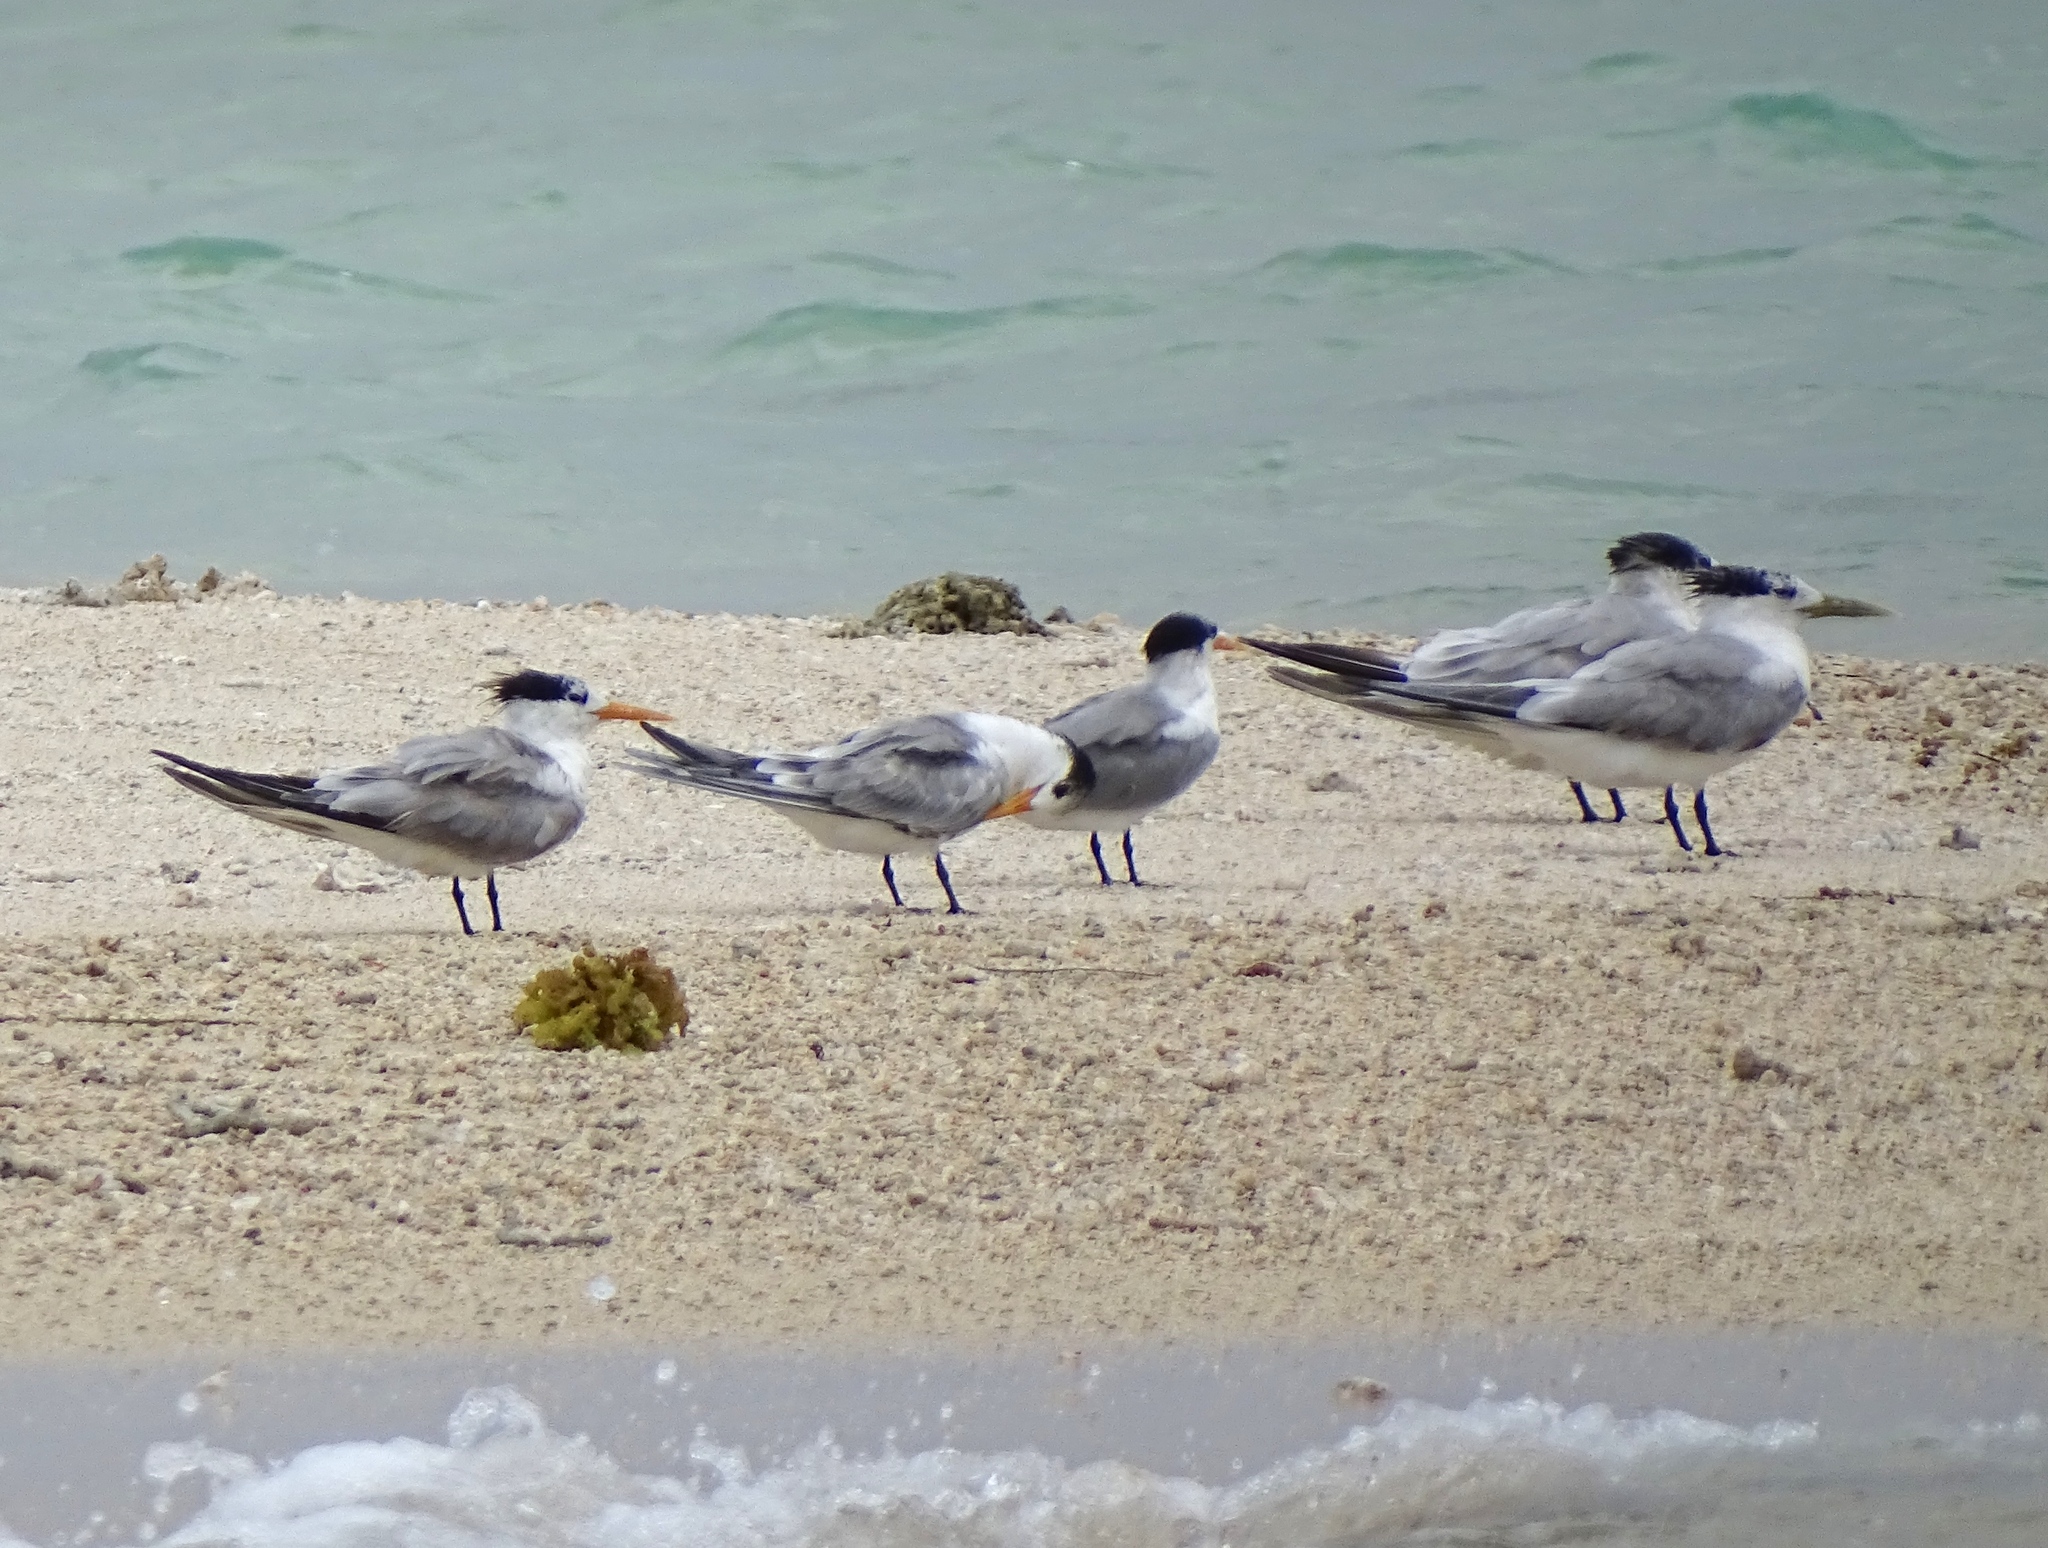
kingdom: Animalia
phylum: Chordata
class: Aves
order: Charadriiformes
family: Laridae
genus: Thalasseus
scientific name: Thalasseus bergii
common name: Greater crested tern
